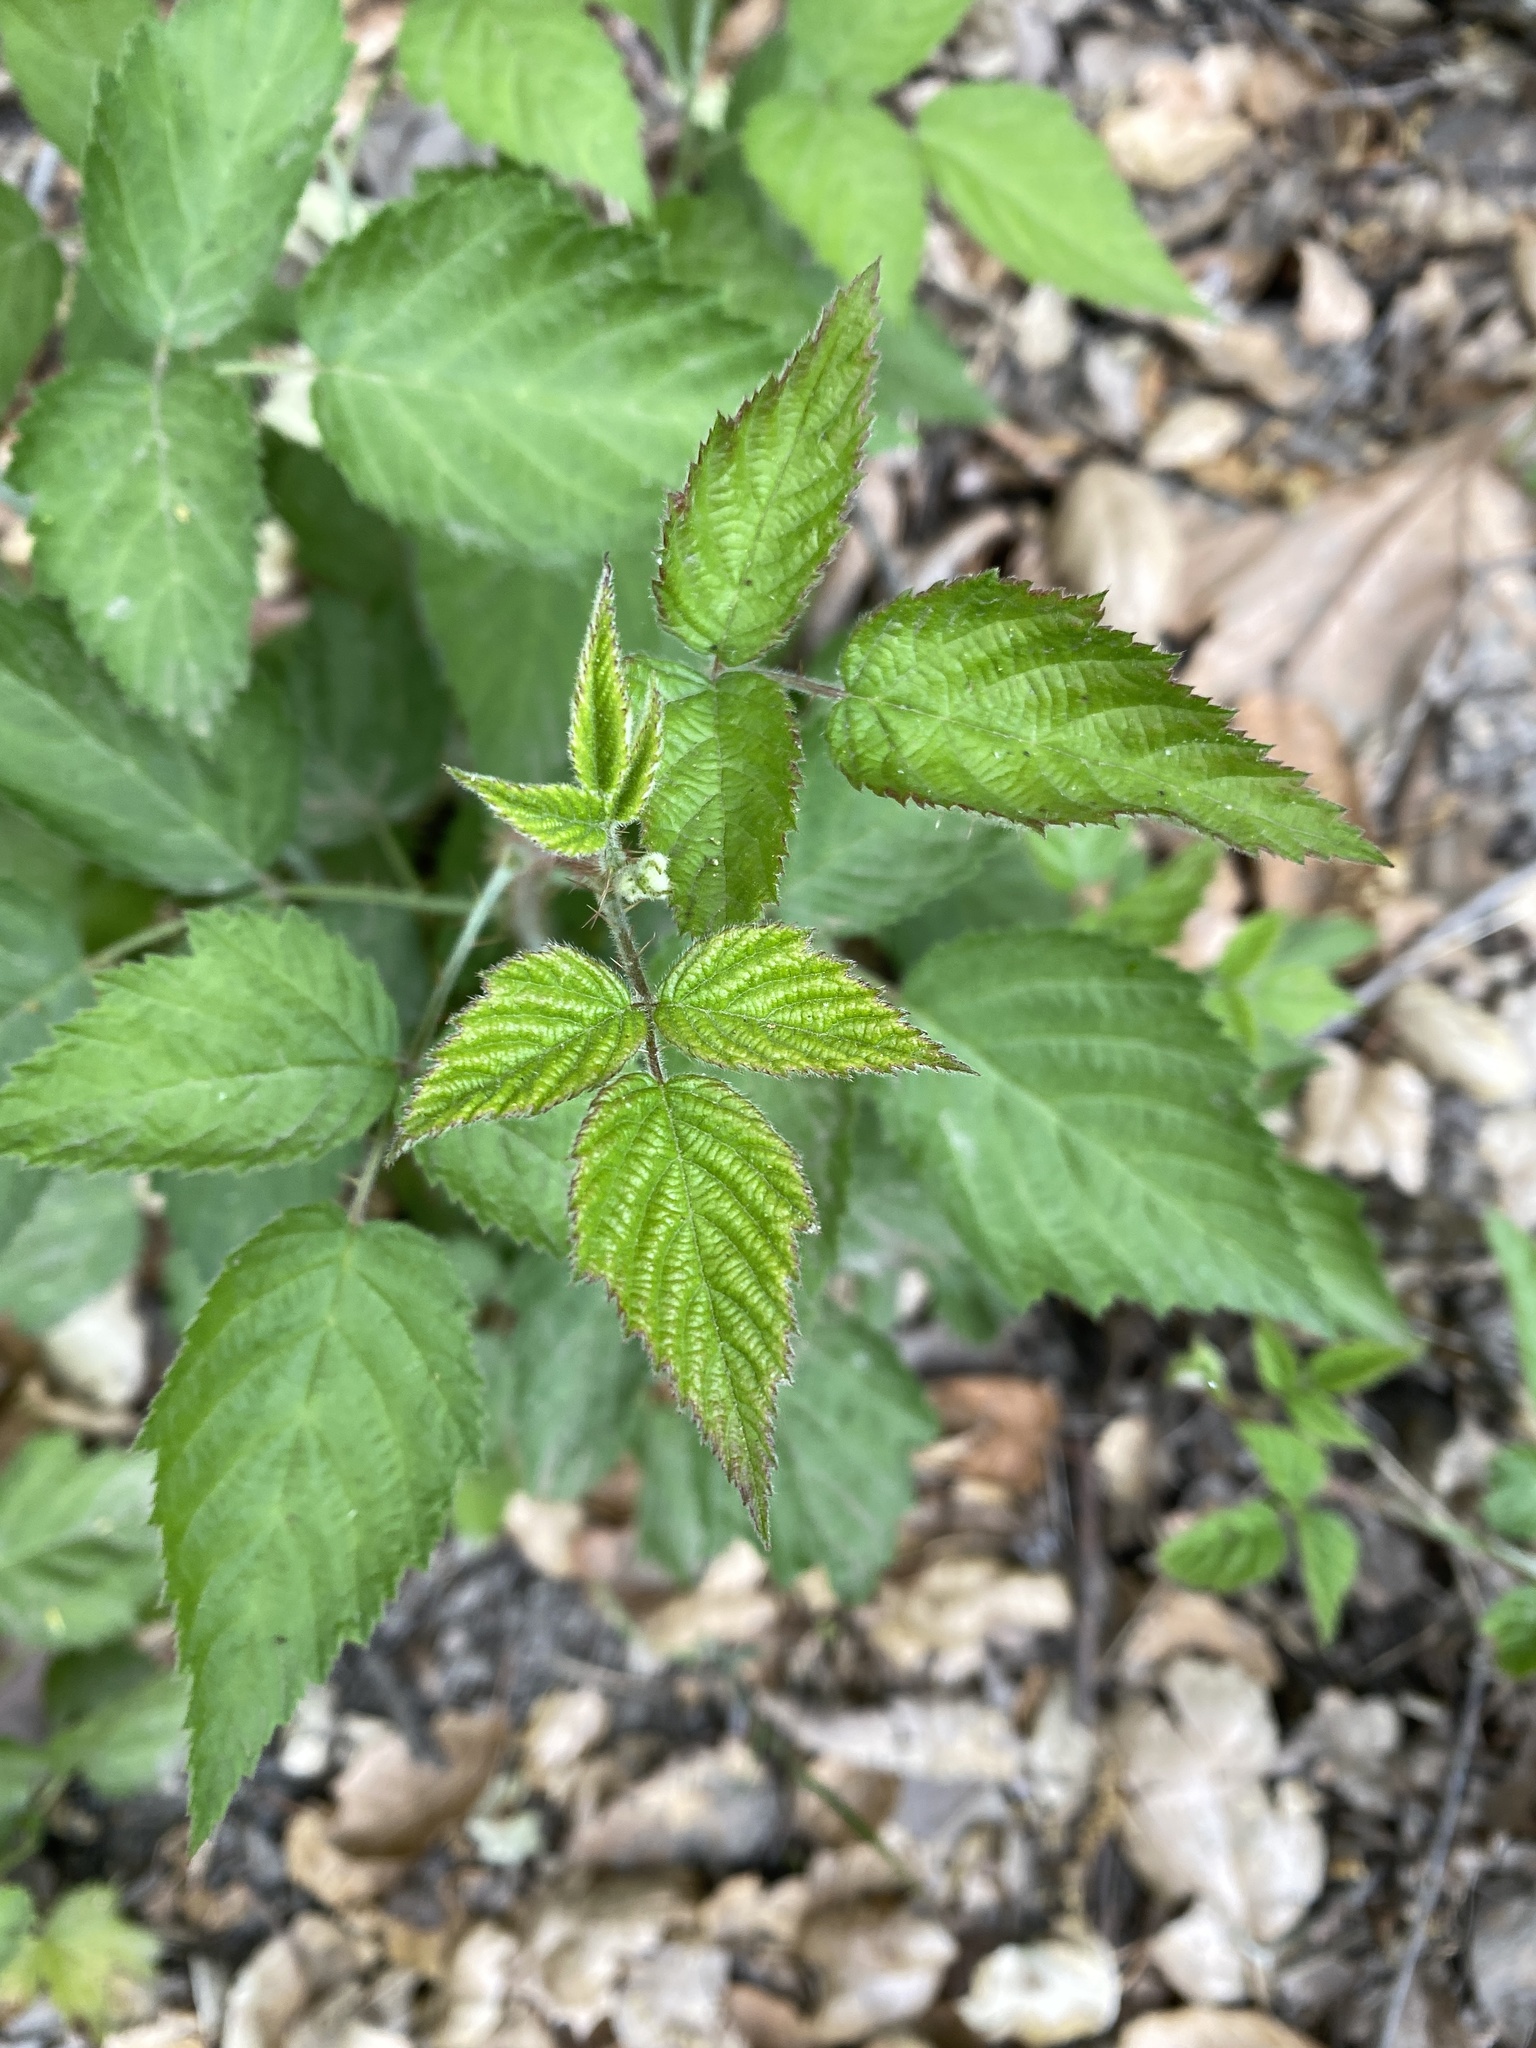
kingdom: Plantae
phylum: Tracheophyta
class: Magnoliopsida
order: Rosales
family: Rosaceae
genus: Rubus
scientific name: Rubus ursinus
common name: Pacific blackberry
